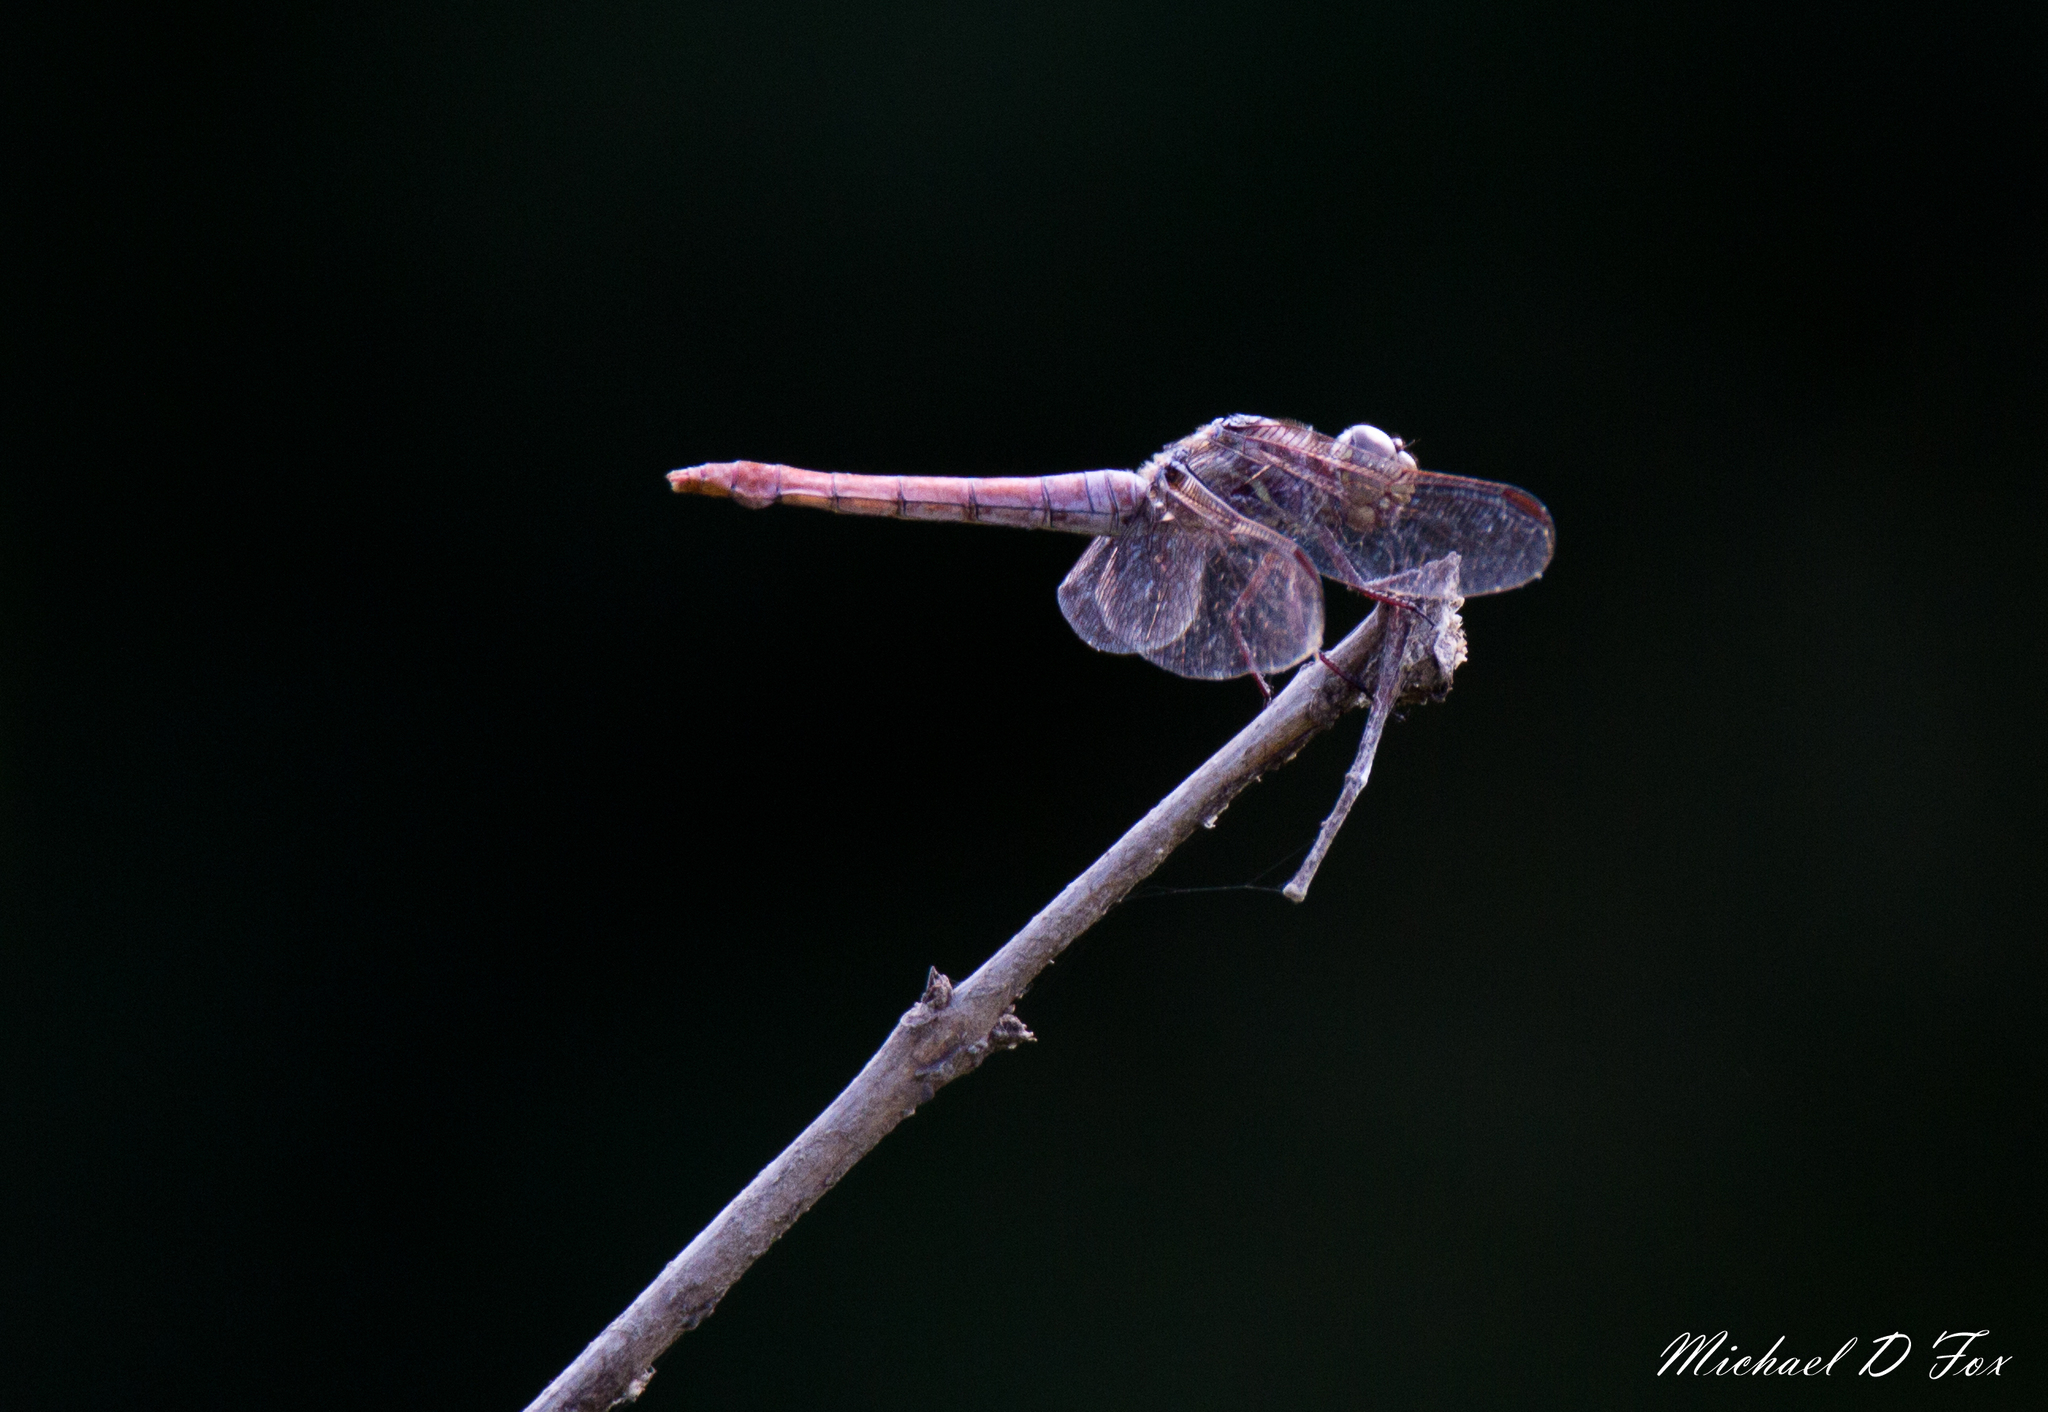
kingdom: Animalia
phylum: Arthropoda
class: Insecta
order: Odonata
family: Libellulidae
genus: Orthemis
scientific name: Orthemis ferruginea
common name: Roseate skimmer
